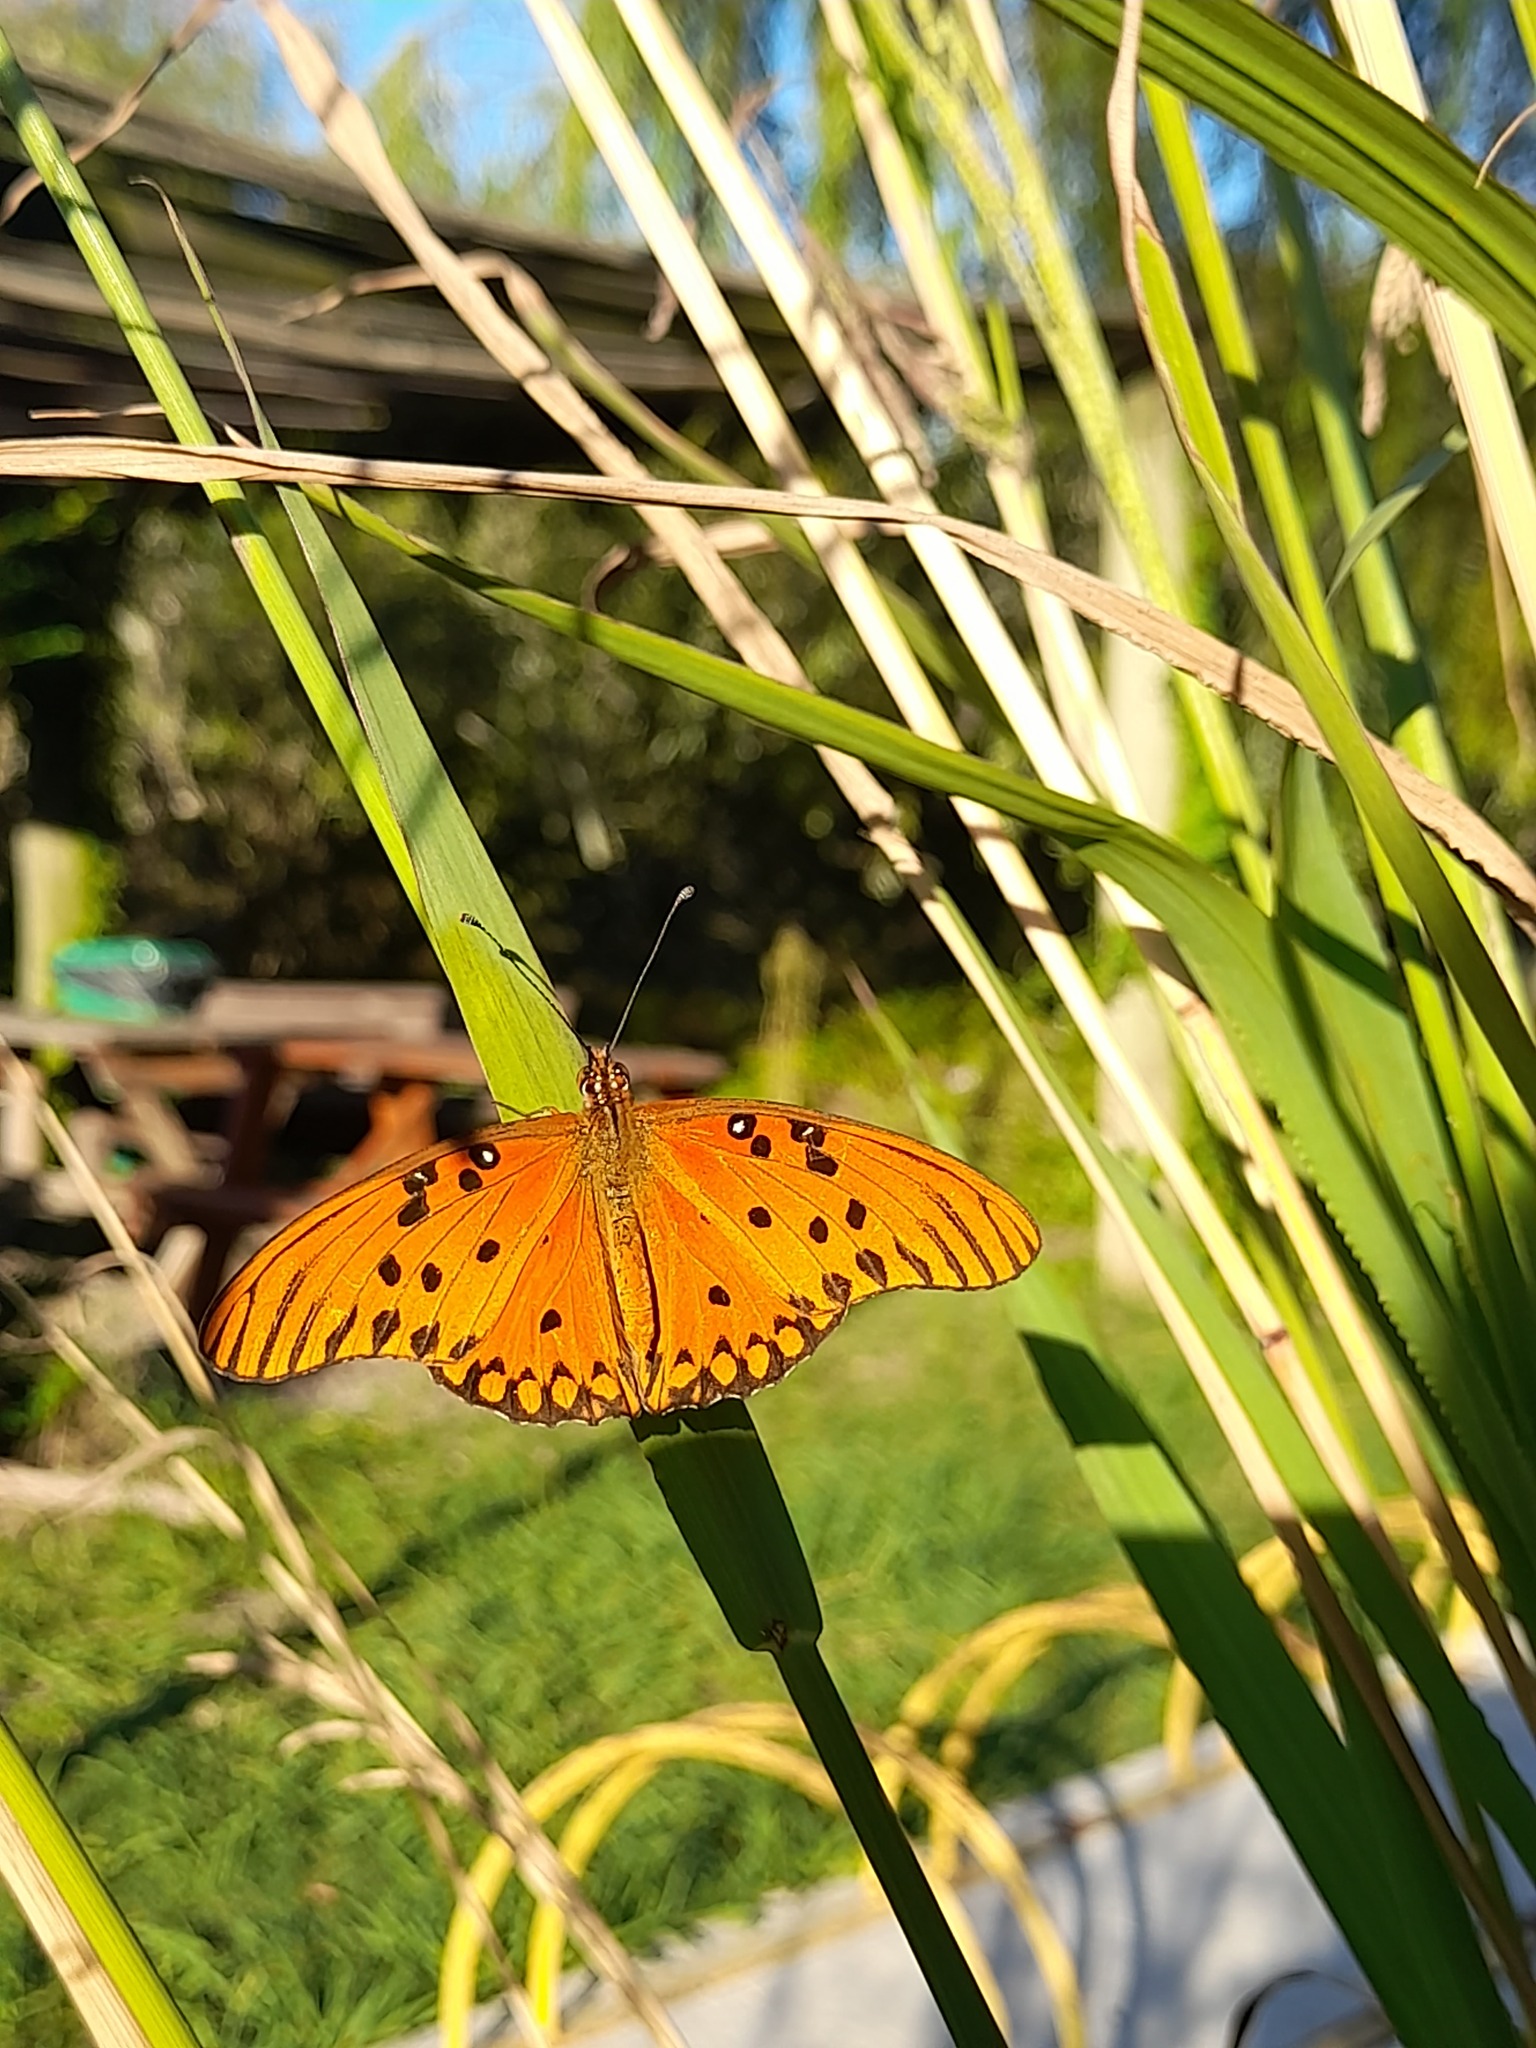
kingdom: Animalia
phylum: Arthropoda
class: Insecta
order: Lepidoptera
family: Nymphalidae
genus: Dione
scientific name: Dione vanillae
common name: Gulf fritillary
